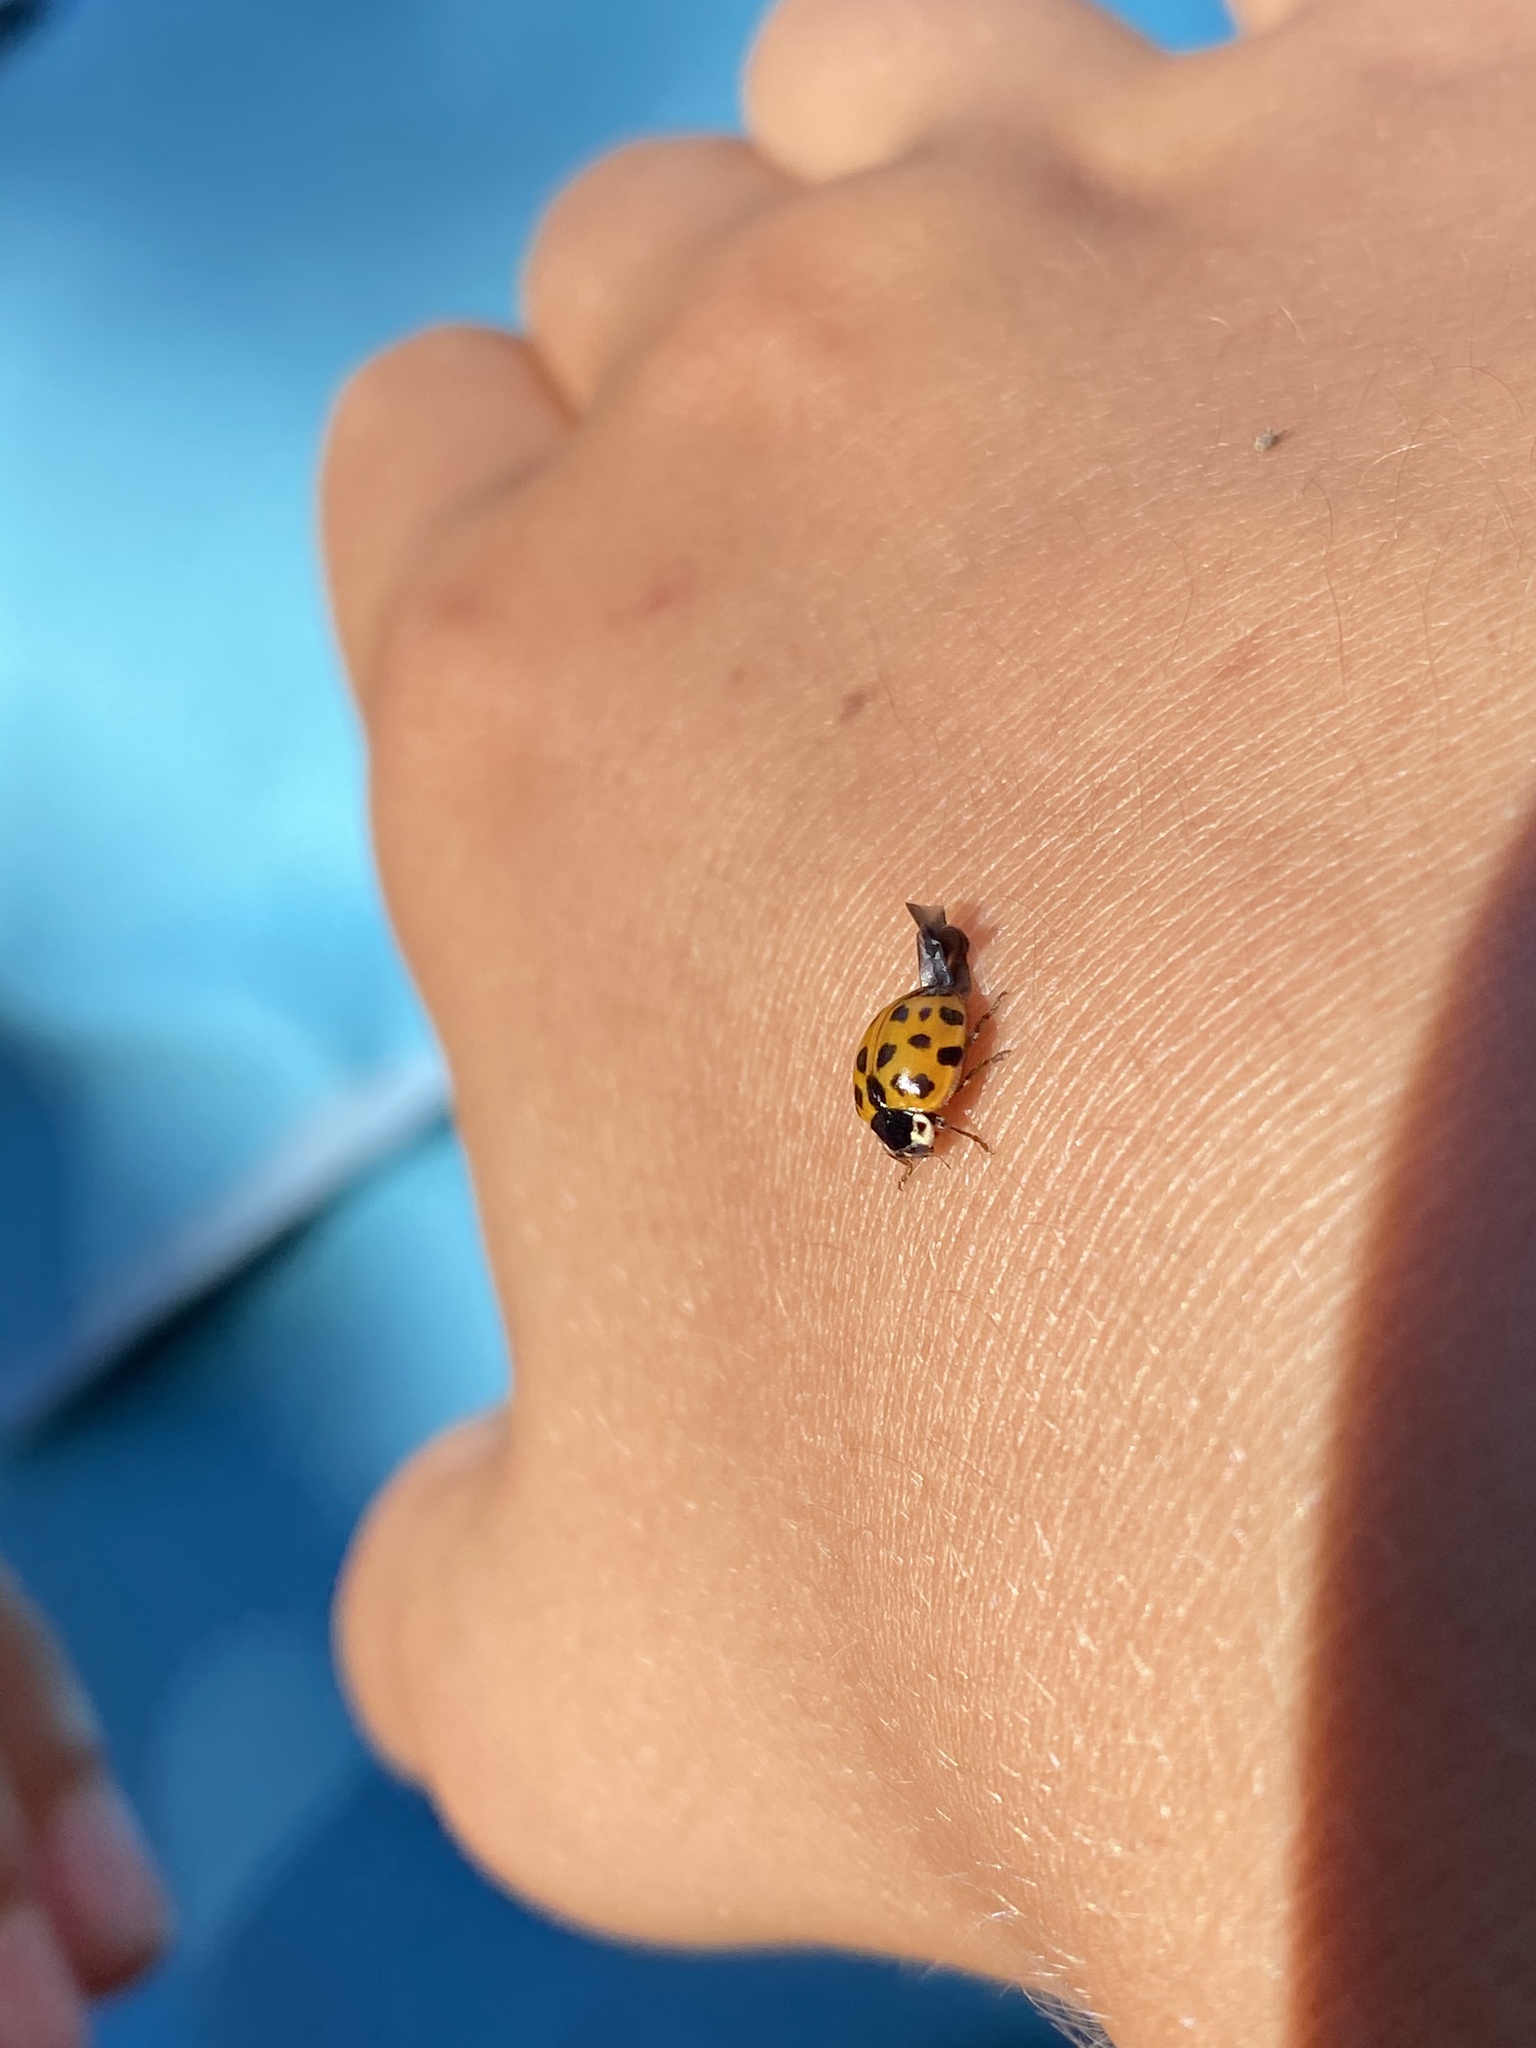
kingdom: Animalia
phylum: Arthropoda
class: Insecta
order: Coleoptera
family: Coccinellidae
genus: Harmonia
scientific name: Harmonia axyridis
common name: Harlequin ladybird
